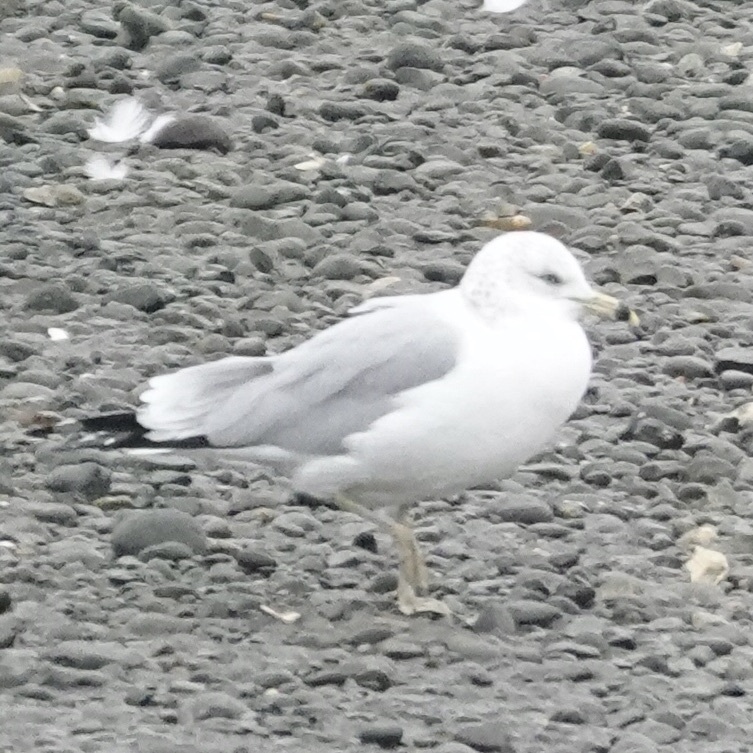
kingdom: Animalia
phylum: Chordata
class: Aves
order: Charadriiformes
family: Laridae
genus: Larus
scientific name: Larus delawarensis
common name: Ring-billed gull
